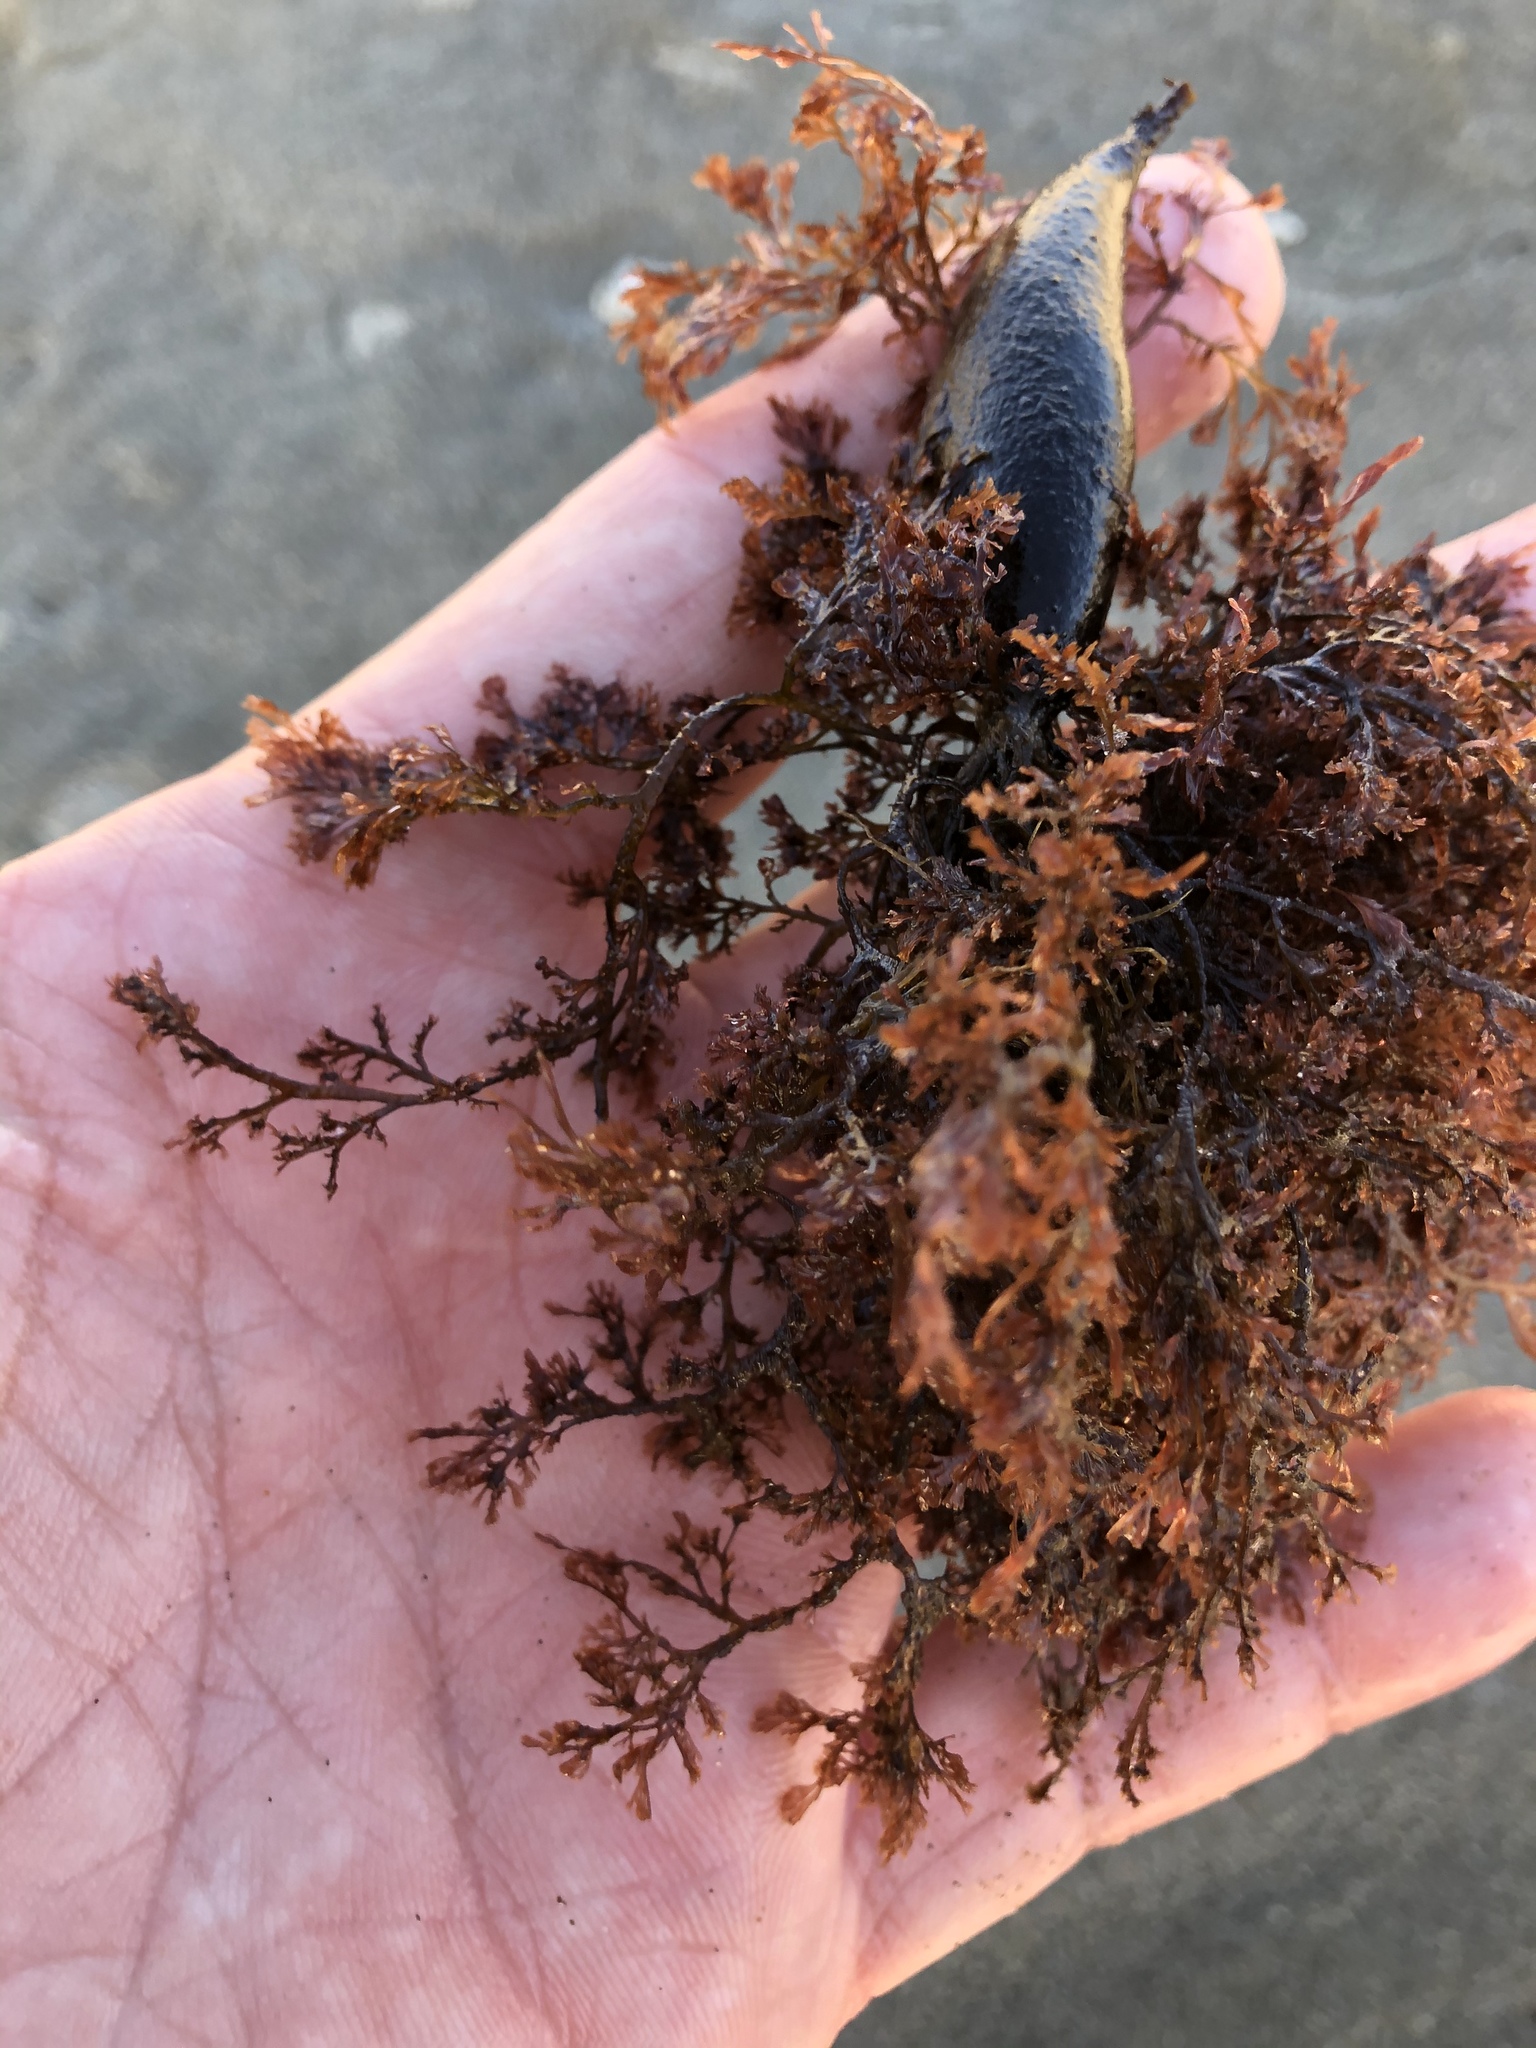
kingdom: Plantae
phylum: Rhodophyta
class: Florideophyceae
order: Ceramiales
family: Ceramiaceae
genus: Microcladia
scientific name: Microcladia coulteri
